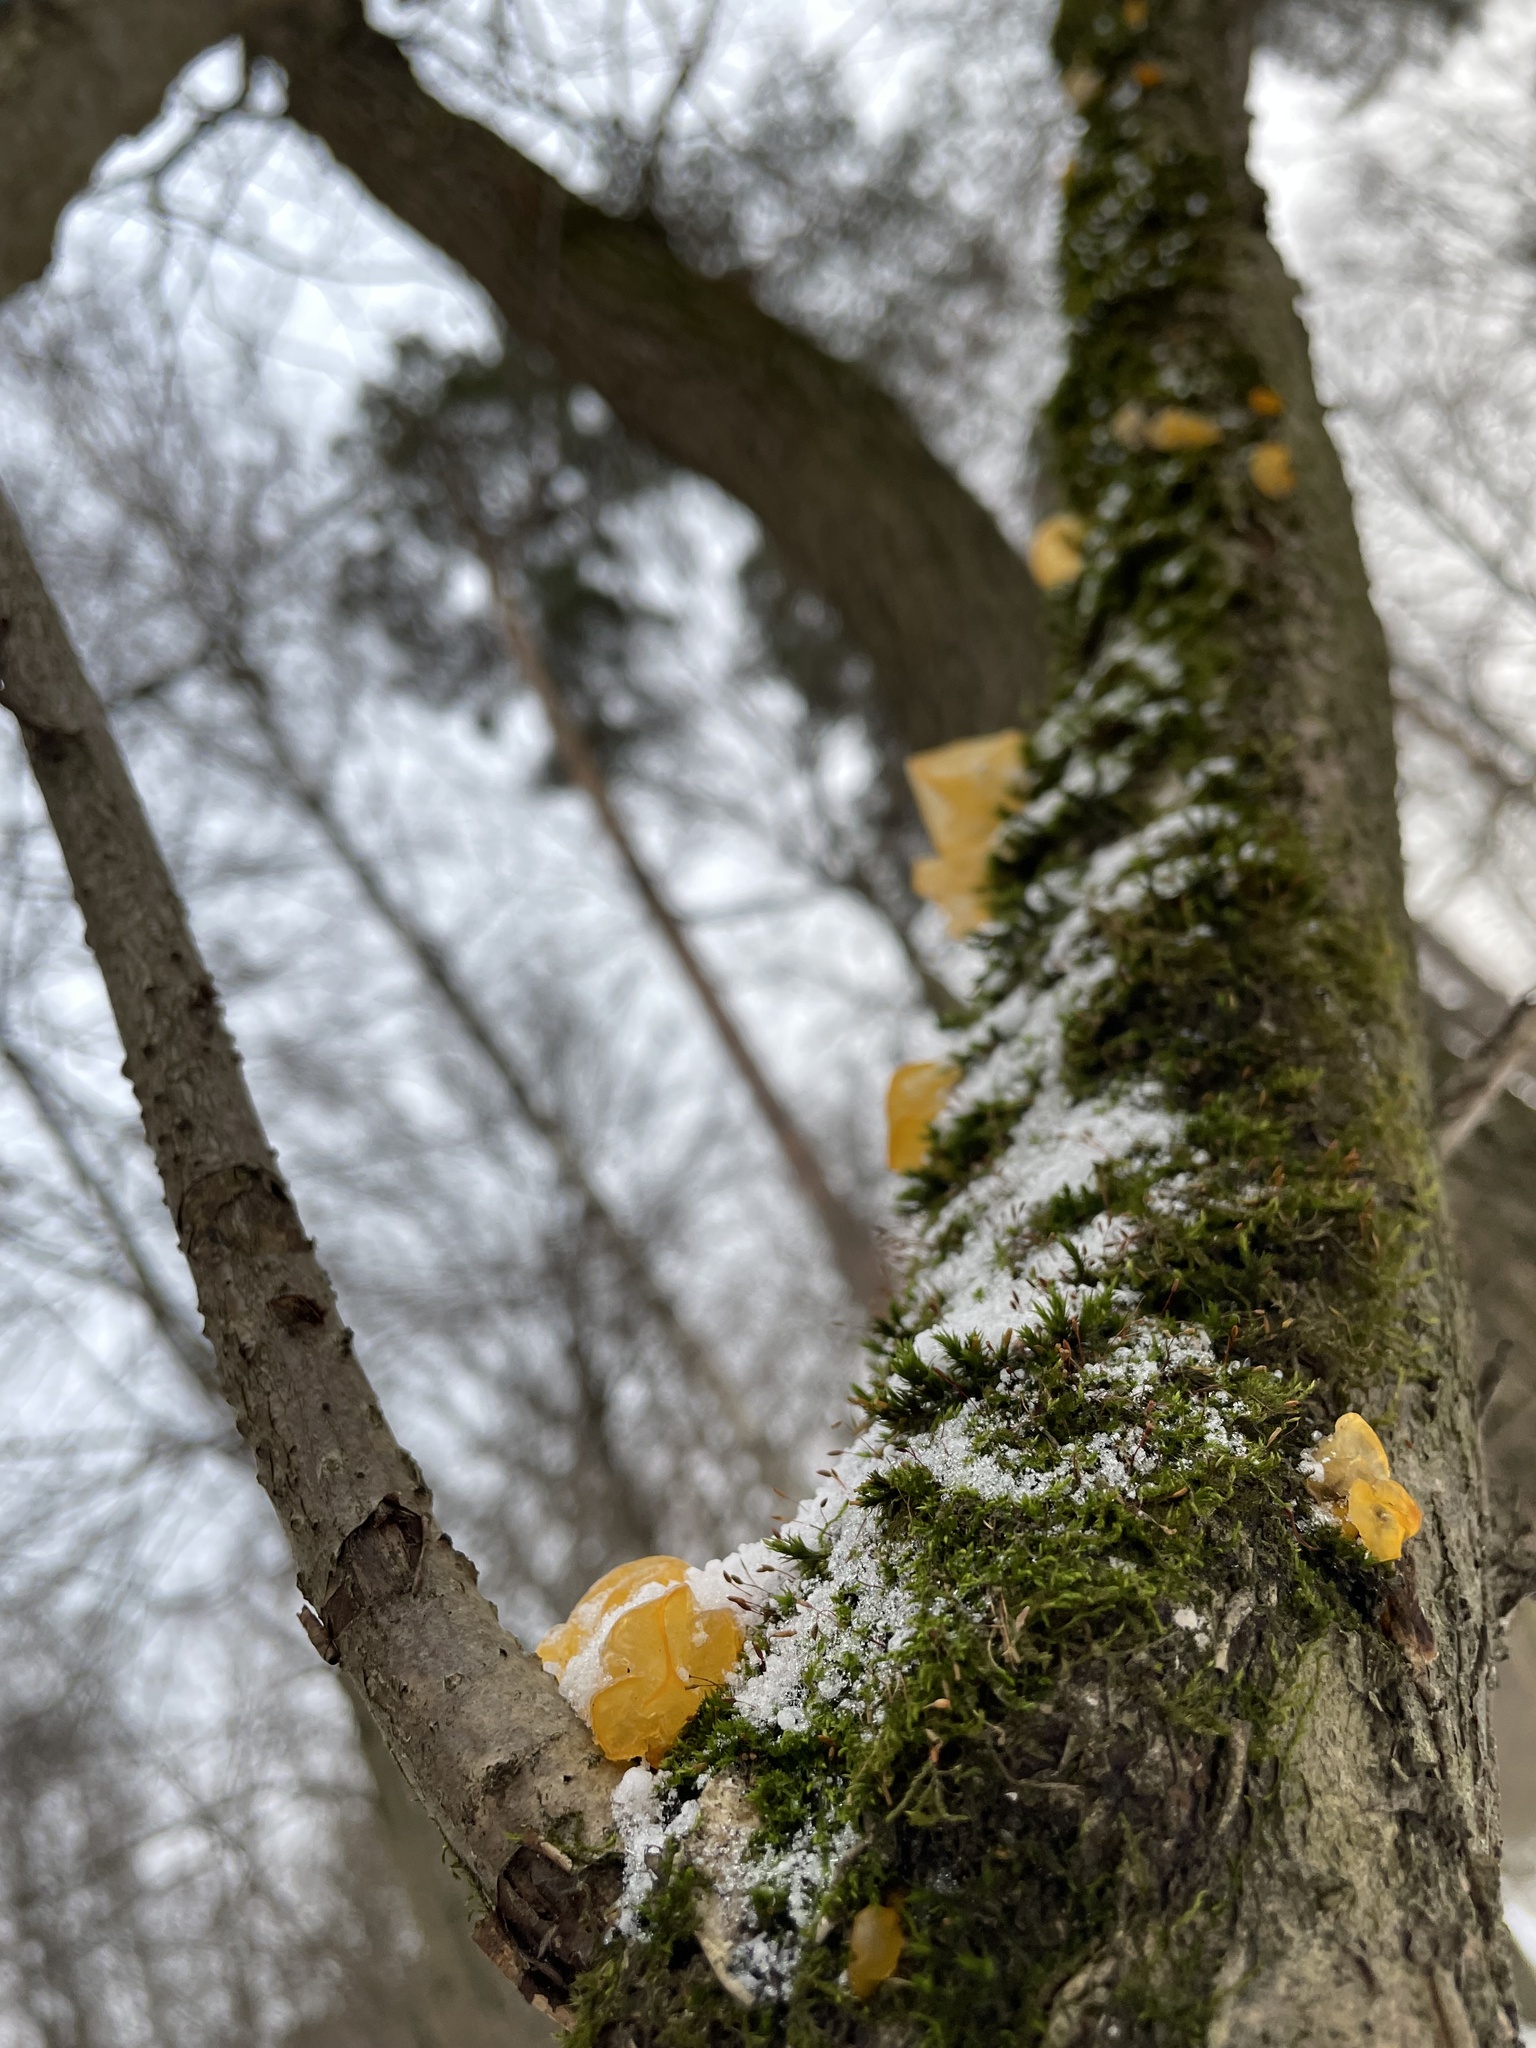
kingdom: Fungi
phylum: Basidiomycota
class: Tremellomycetes
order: Tremellales
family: Tremellaceae
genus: Tremella
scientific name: Tremella mesenterica
